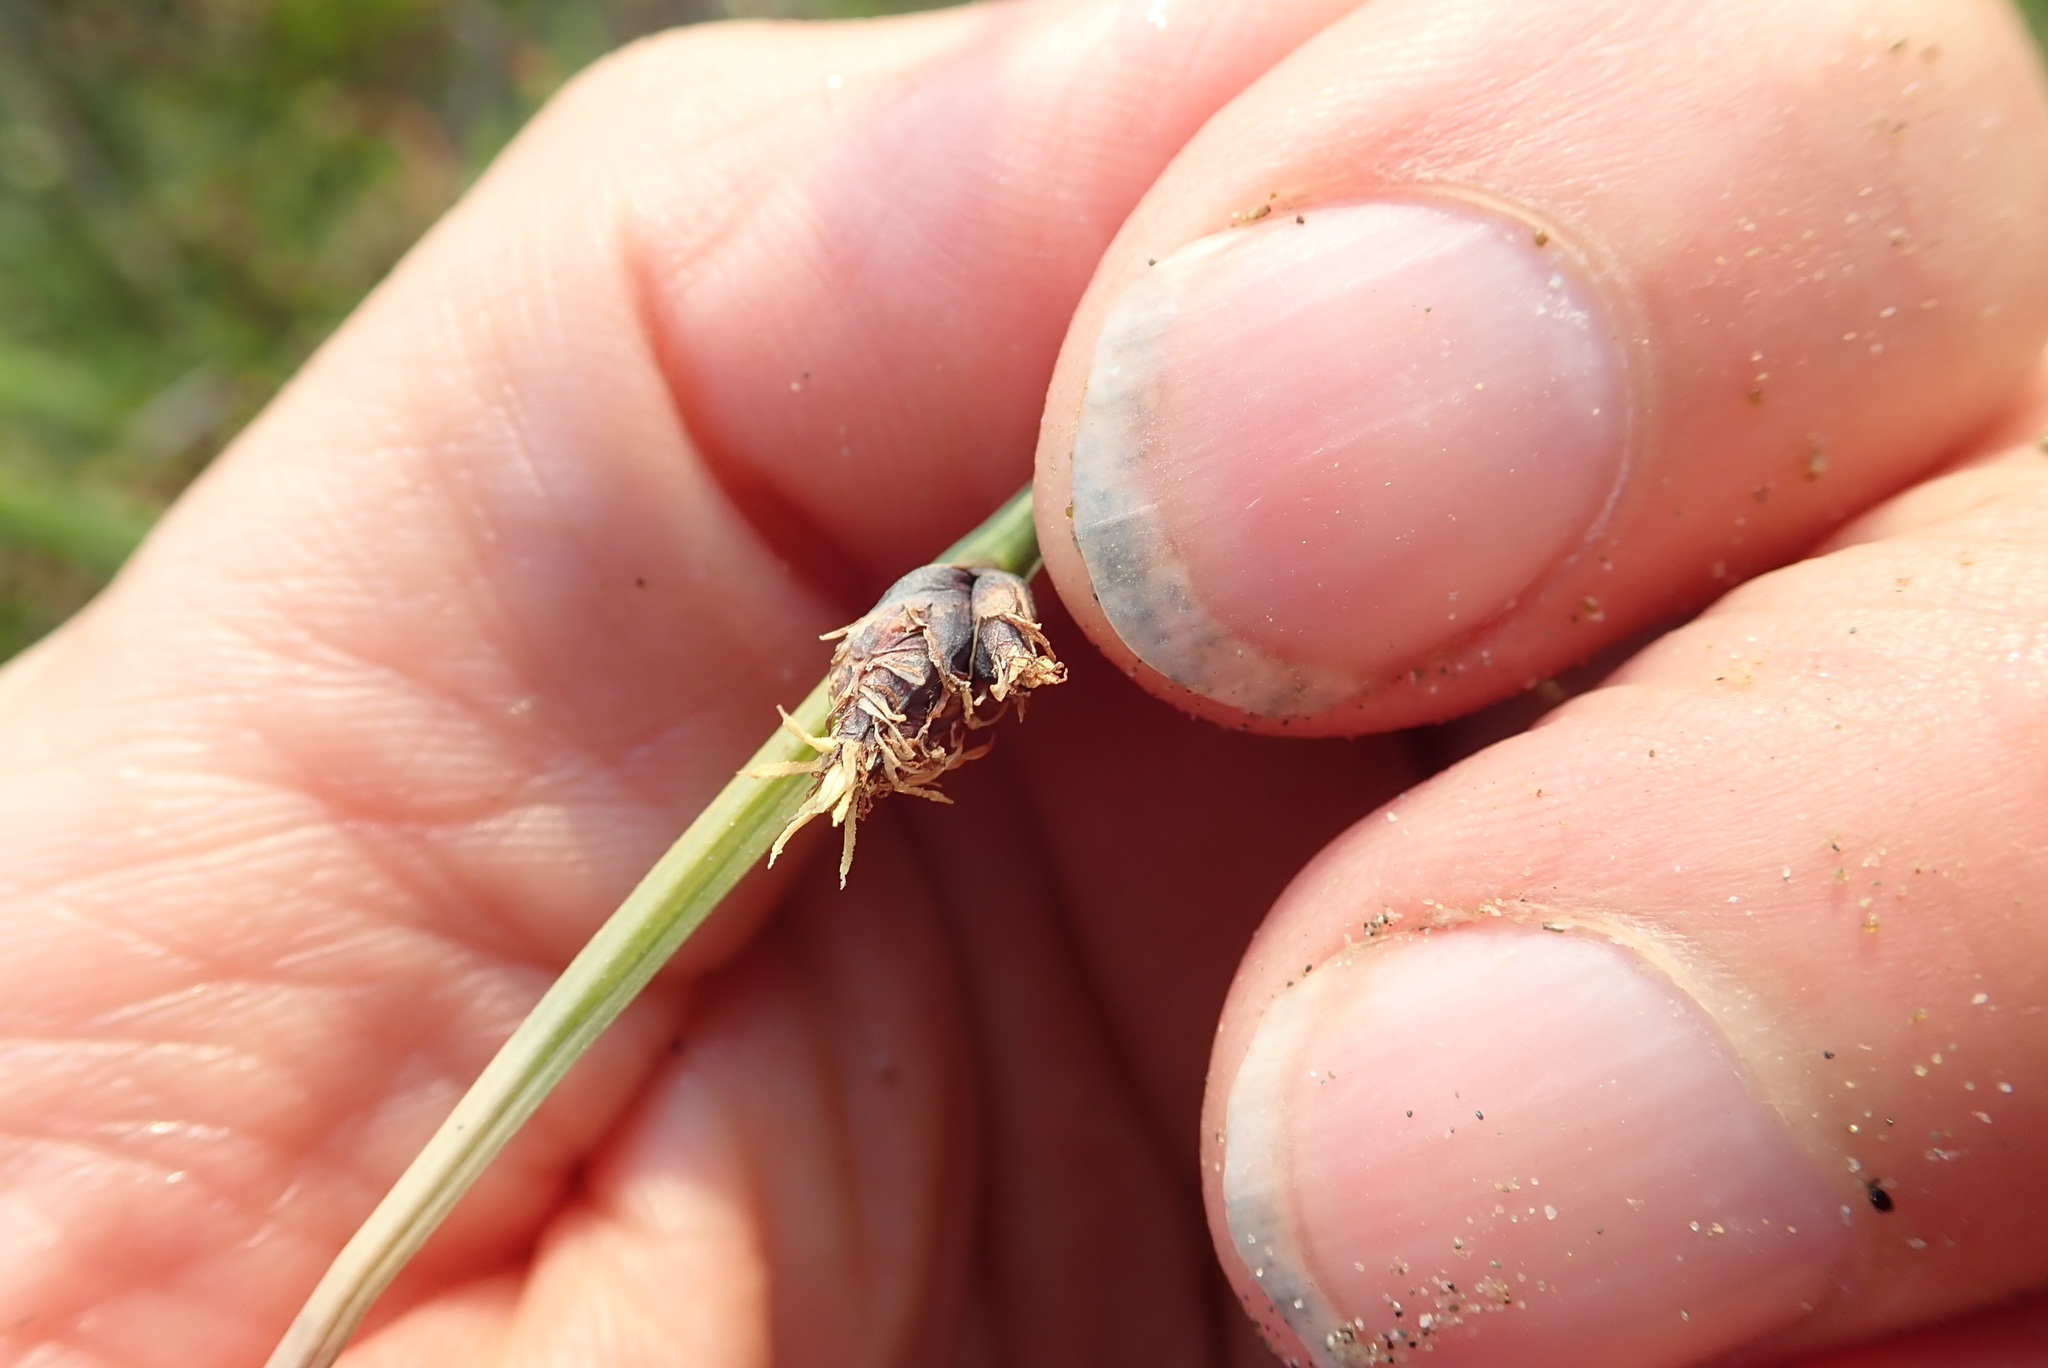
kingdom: Plantae
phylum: Tracheophyta
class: Liliopsida
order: Poales
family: Cyperaceae
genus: Schoenoplectus
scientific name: Schoenoplectus pungens
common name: Sharp club-rush
